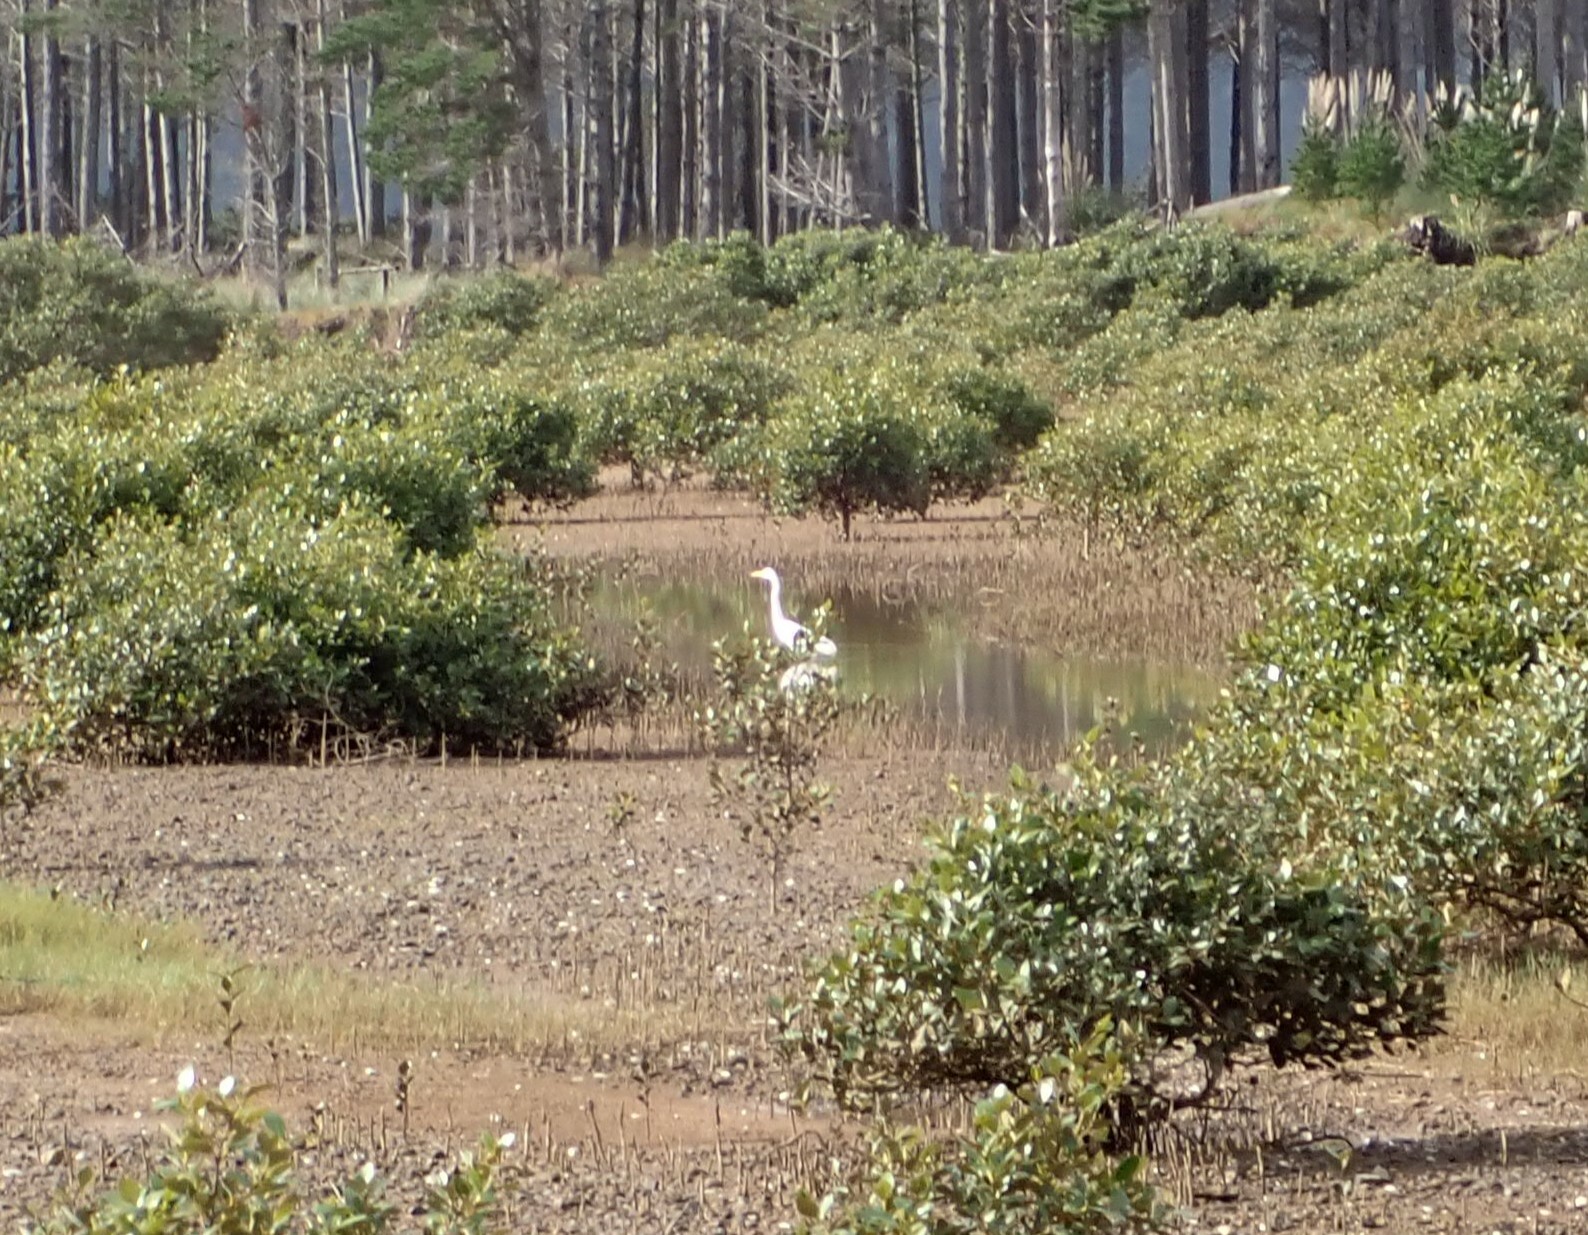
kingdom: Animalia
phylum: Chordata
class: Aves
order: Pelecaniformes
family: Ardeidae
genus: Ardea
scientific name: Ardea modesta
